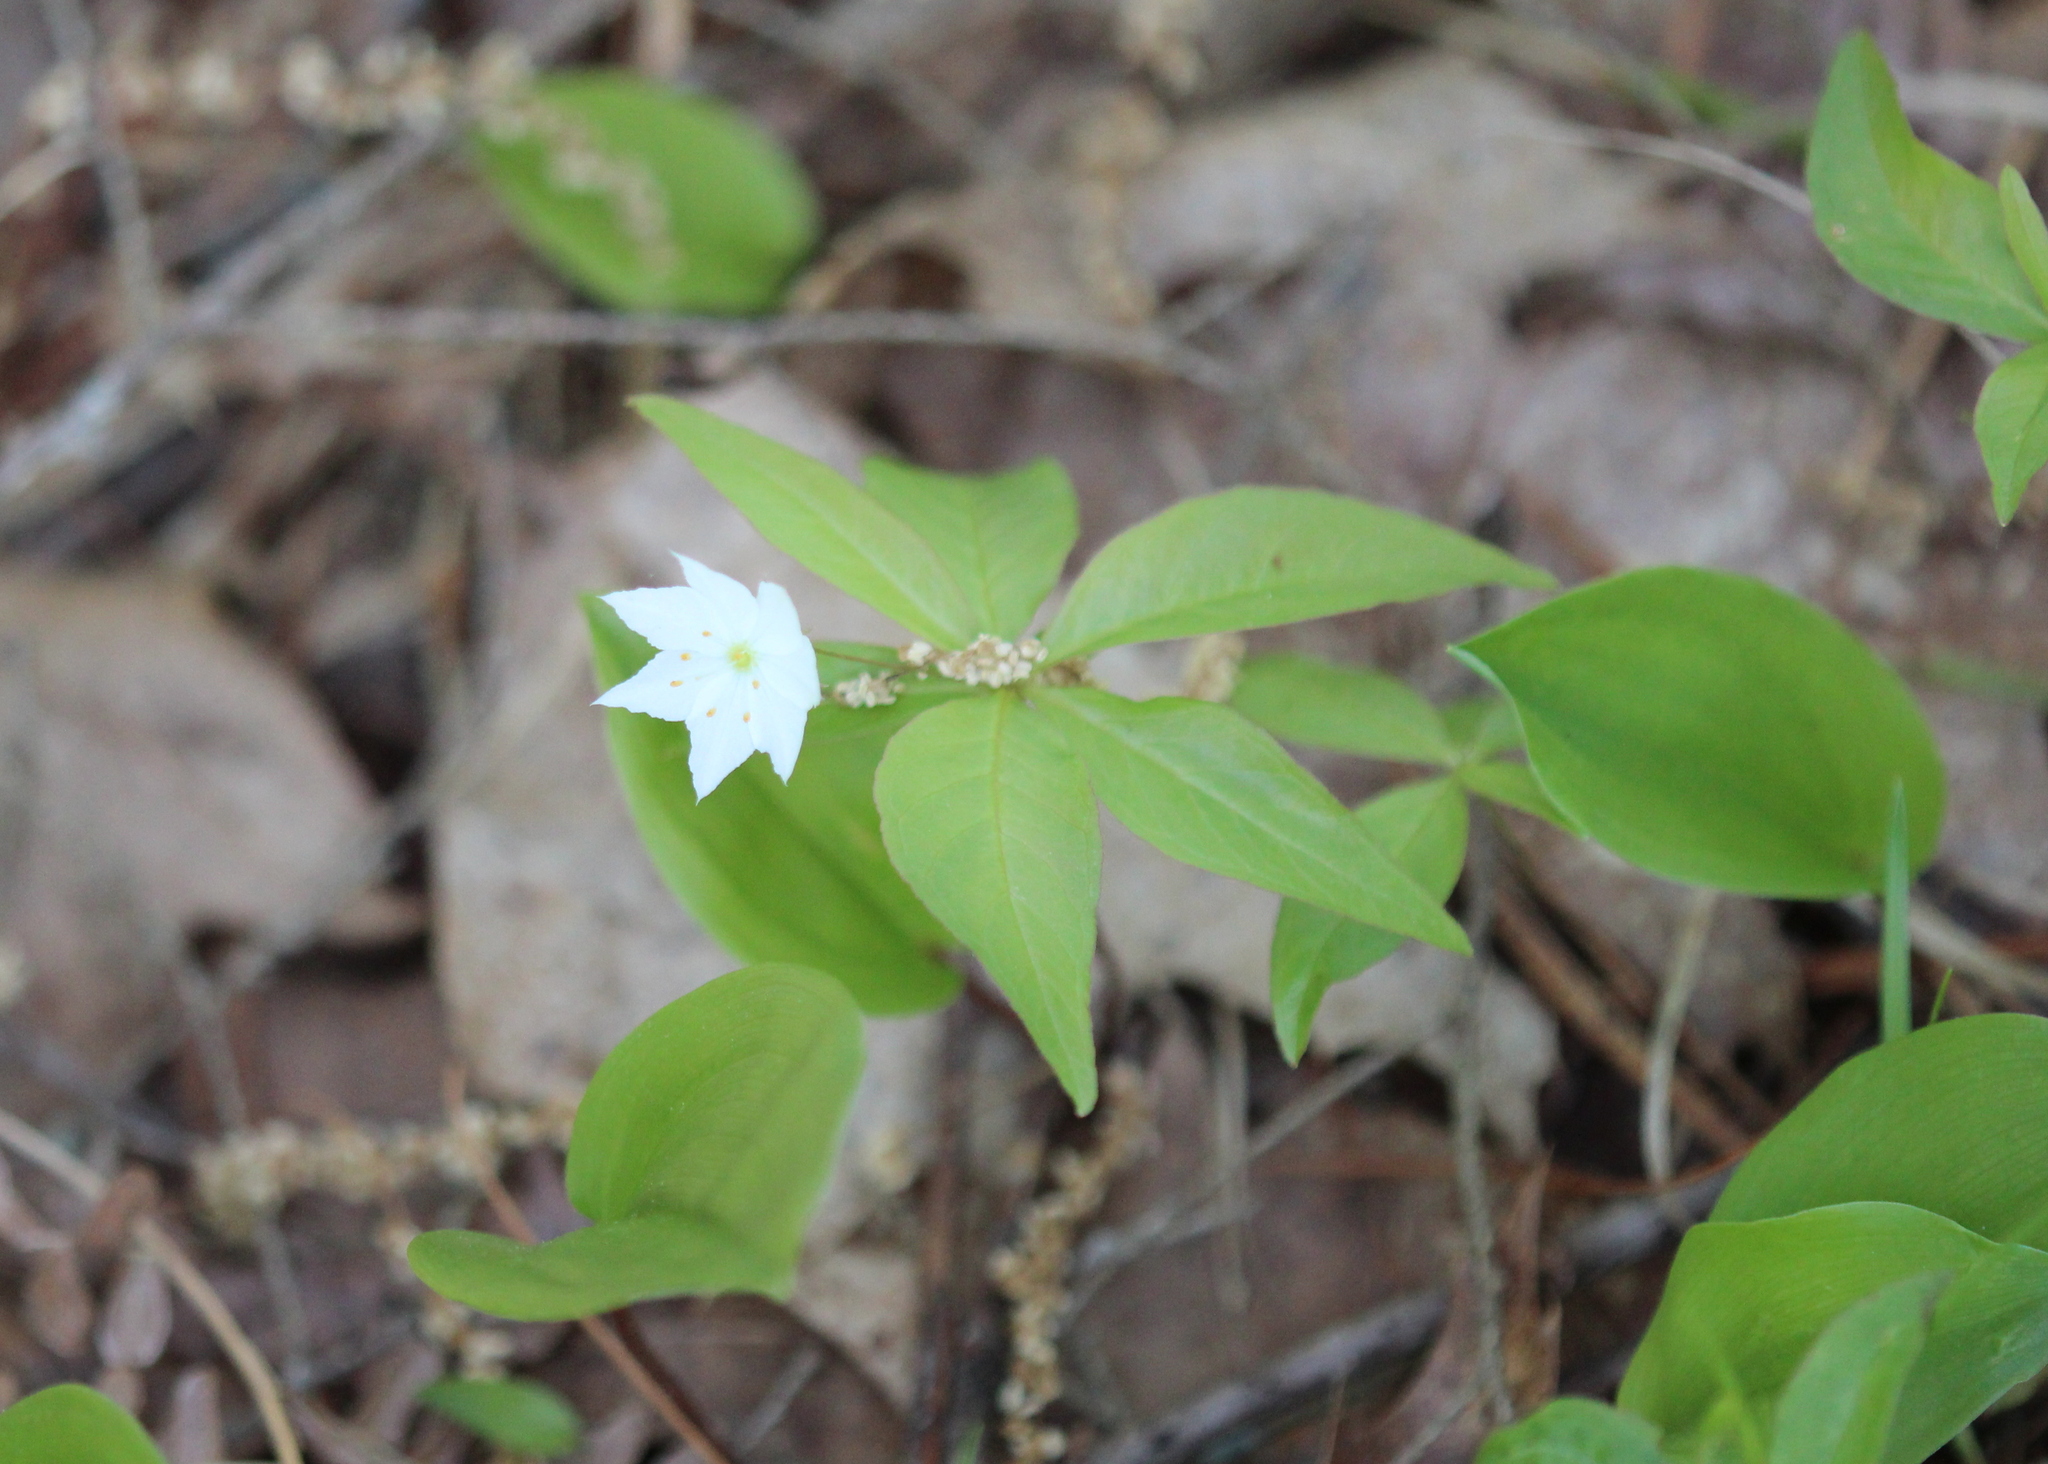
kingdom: Plantae
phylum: Tracheophyta
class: Magnoliopsida
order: Ericales
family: Primulaceae
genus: Lysimachia
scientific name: Lysimachia borealis
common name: American starflower
